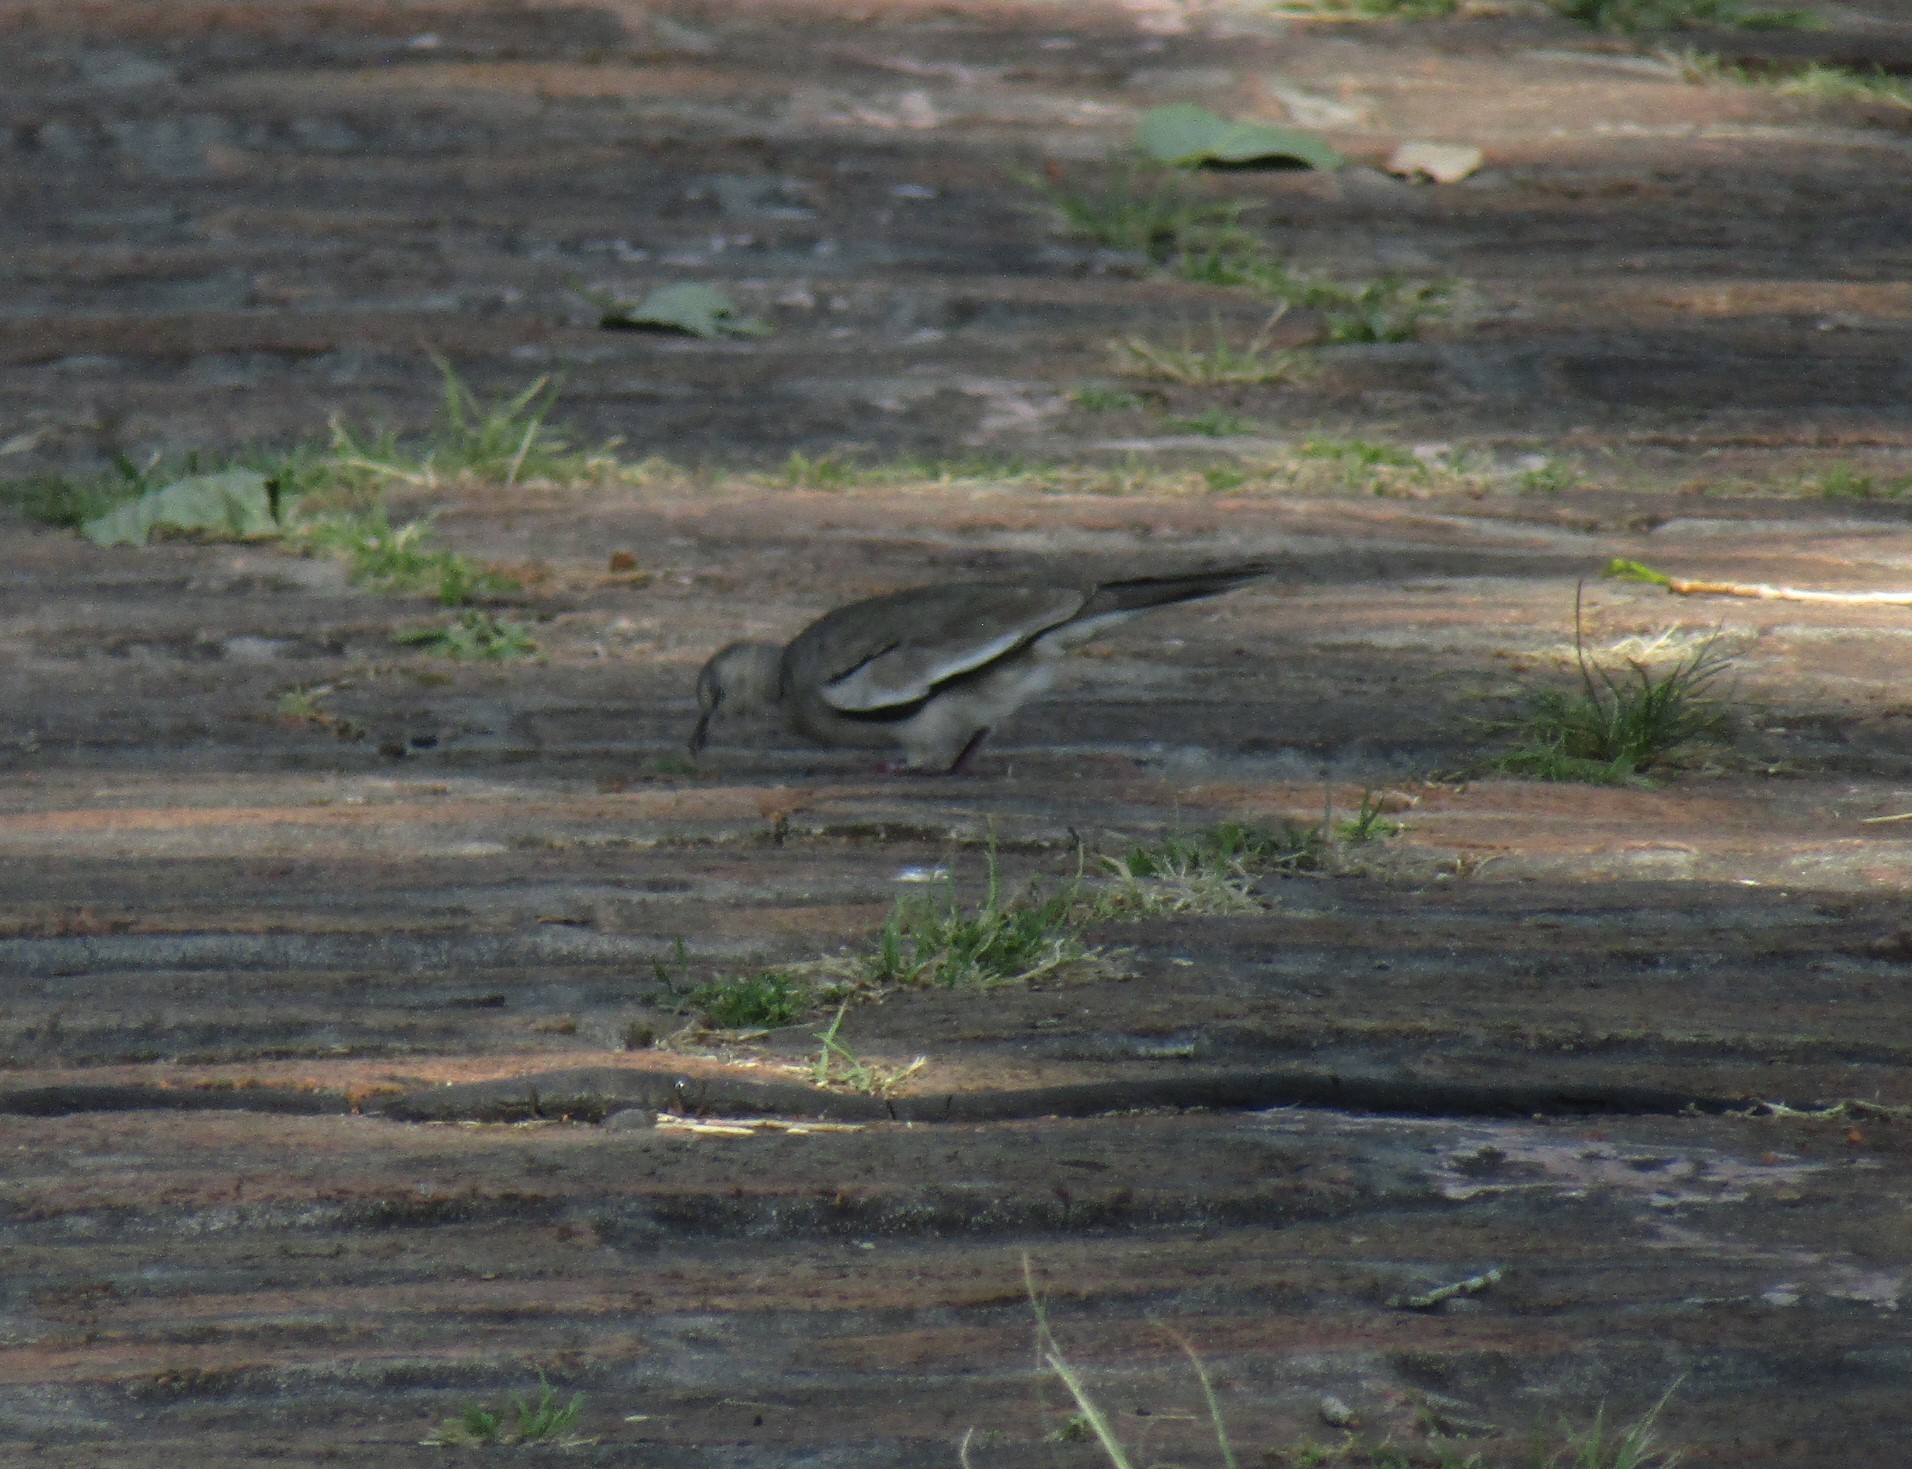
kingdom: Animalia
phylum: Chordata
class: Aves
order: Columbiformes
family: Columbidae
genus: Columbina
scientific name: Columbina picui
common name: Picui ground dove
